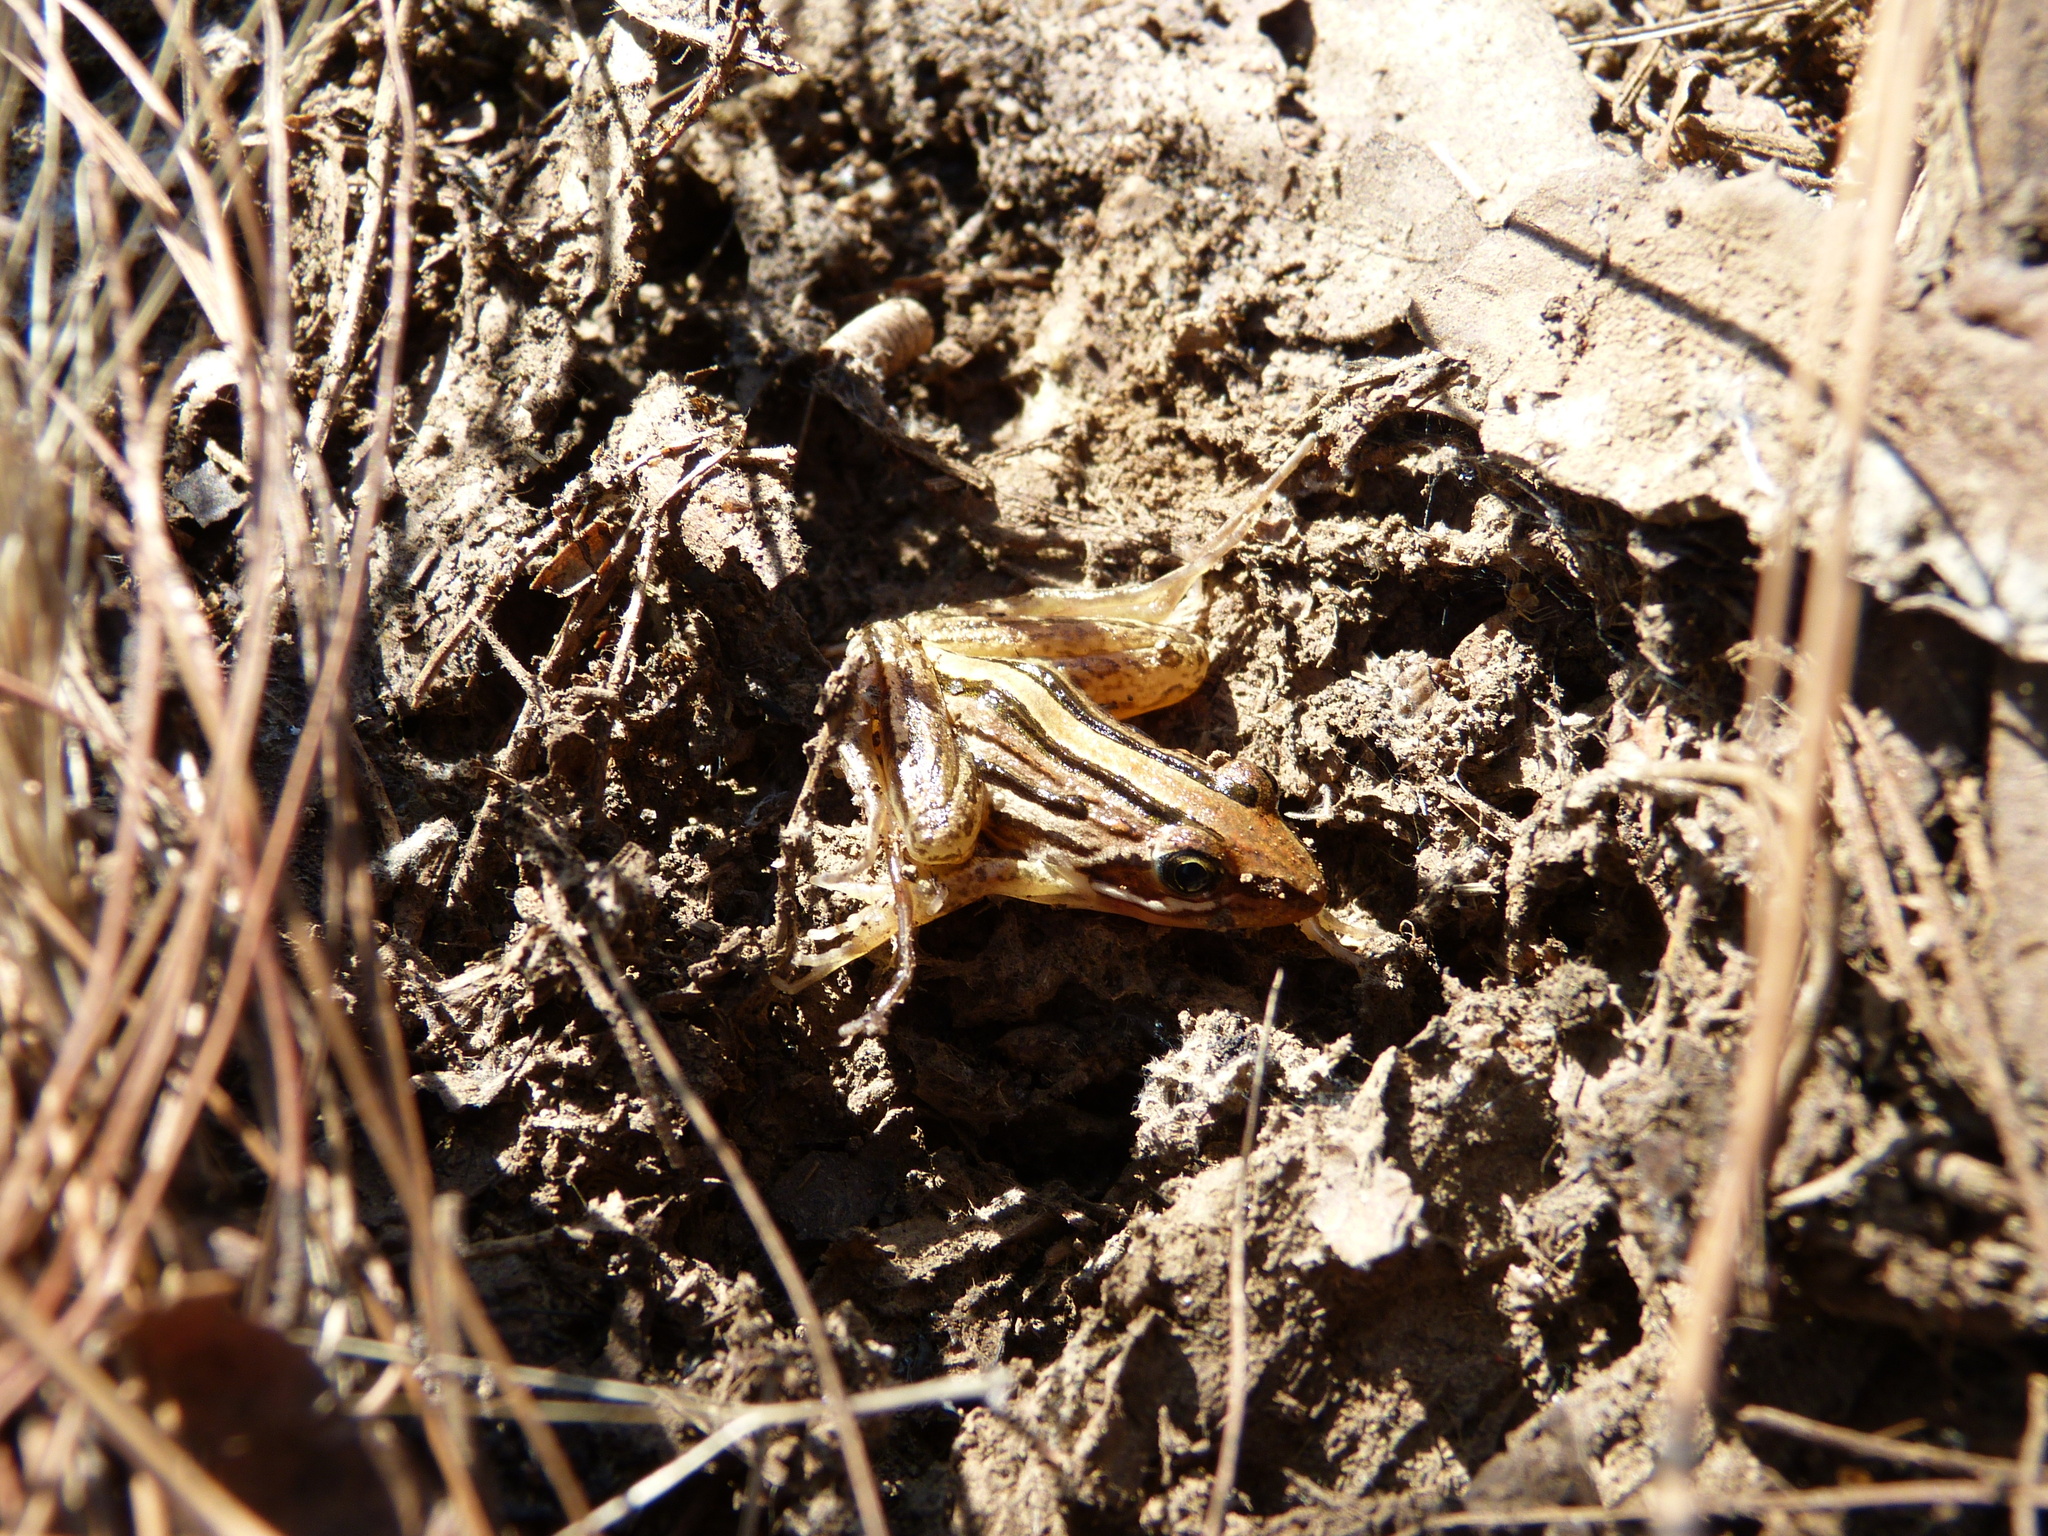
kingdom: Animalia
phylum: Chordata
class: Amphibia
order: Anura
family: Pyxicephalidae
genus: Strongylopus
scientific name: Strongylopus fasciatus
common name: Striped stream frog
